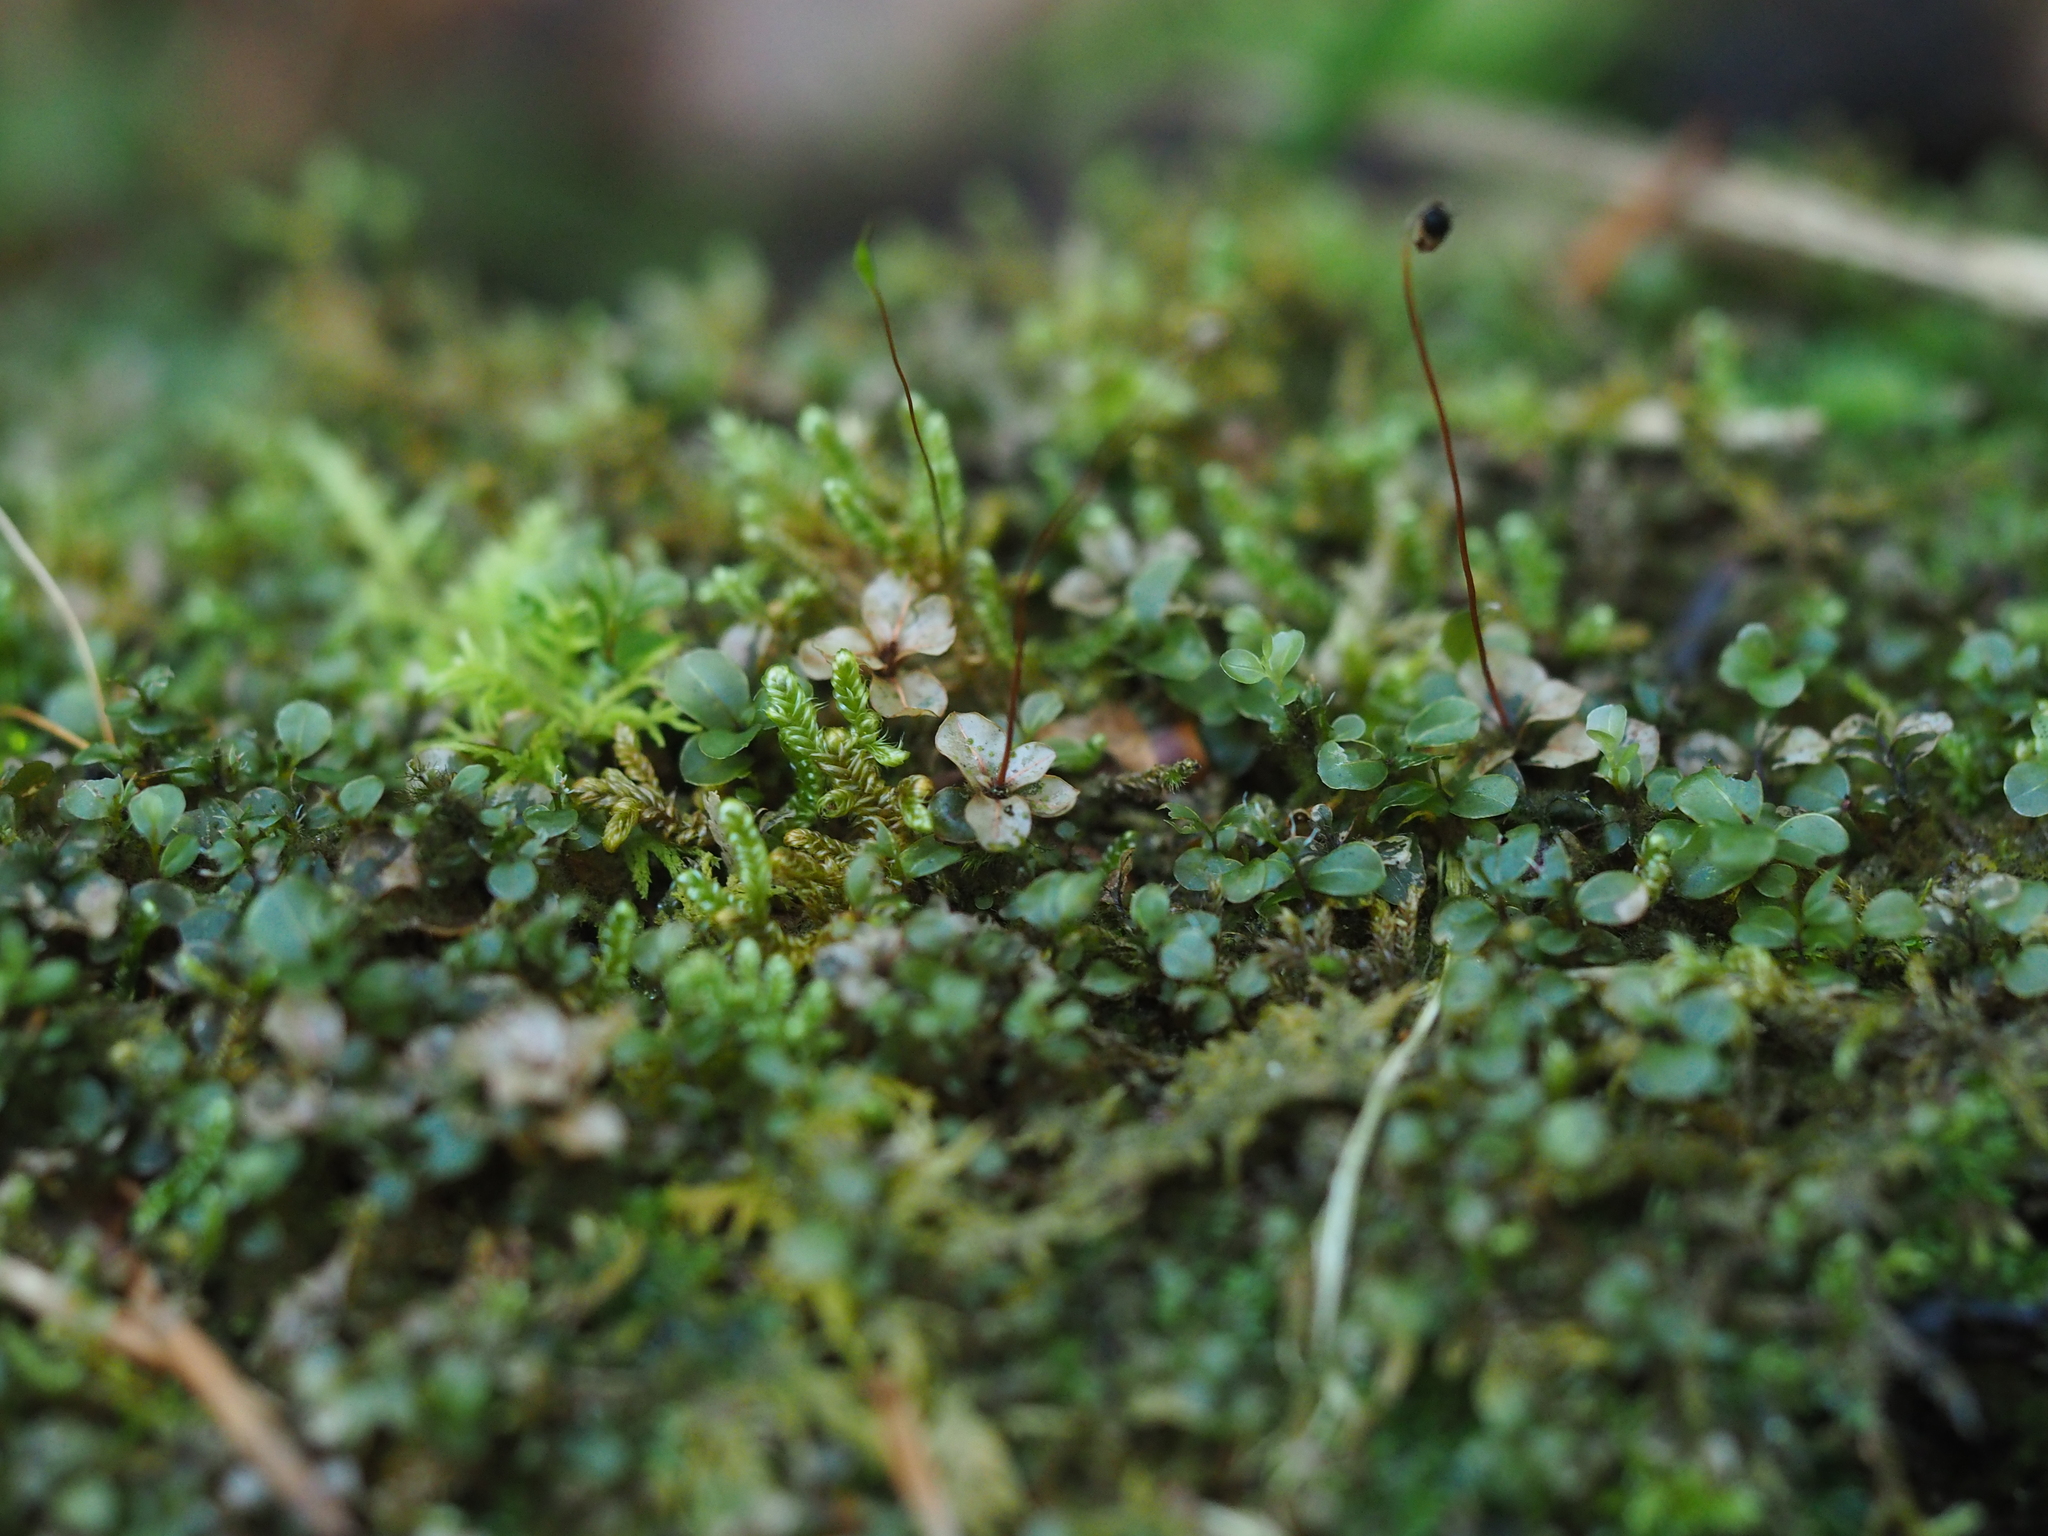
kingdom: Plantae
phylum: Bryophyta
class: Bryopsida
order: Bryales
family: Mniaceae
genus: Rhizomnium
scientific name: Rhizomnium punctatum
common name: Dotted leafy moss
